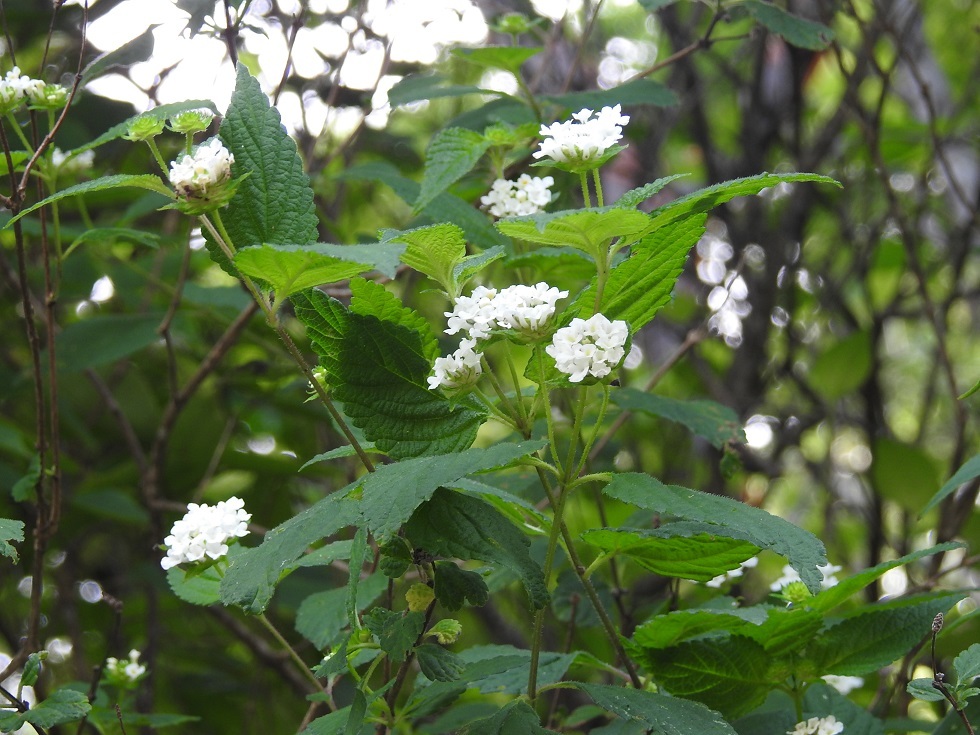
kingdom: Plantae
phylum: Tracheophyta
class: Magnoliopsida
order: Lamiales
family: Verbenaceae
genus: Lantana
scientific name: Lantana velutina
